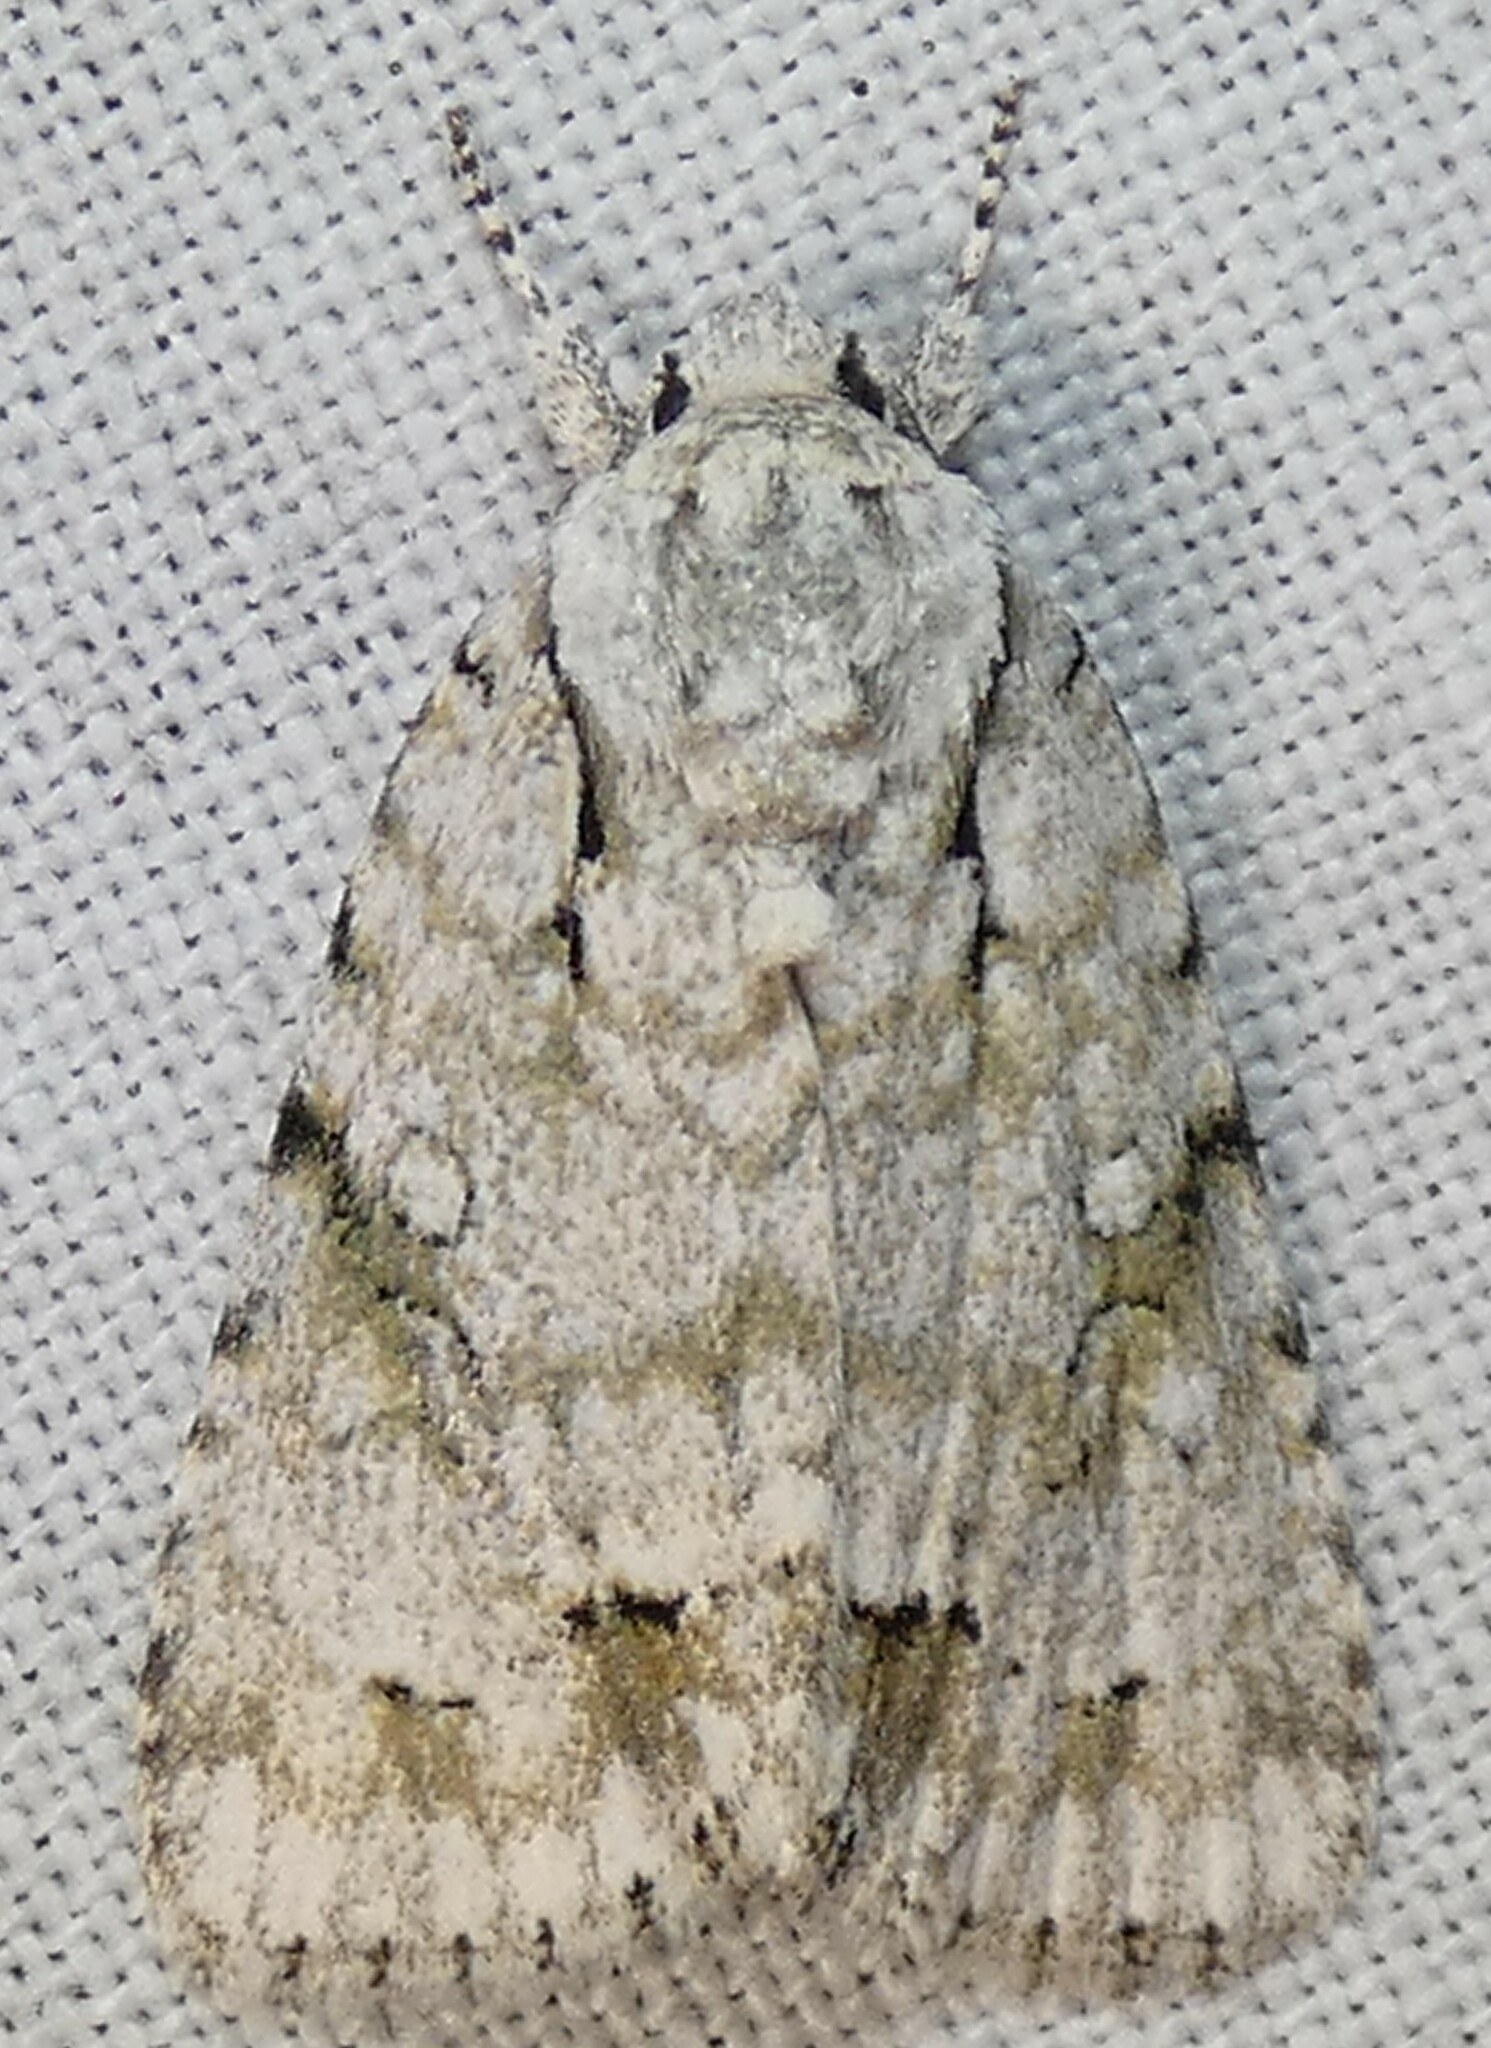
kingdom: Animalia
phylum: Arthropoda
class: Insecta
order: Lepidoptera
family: Noctuidae
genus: Acronicta
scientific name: Acronicta vinnula
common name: Delightful dagger
